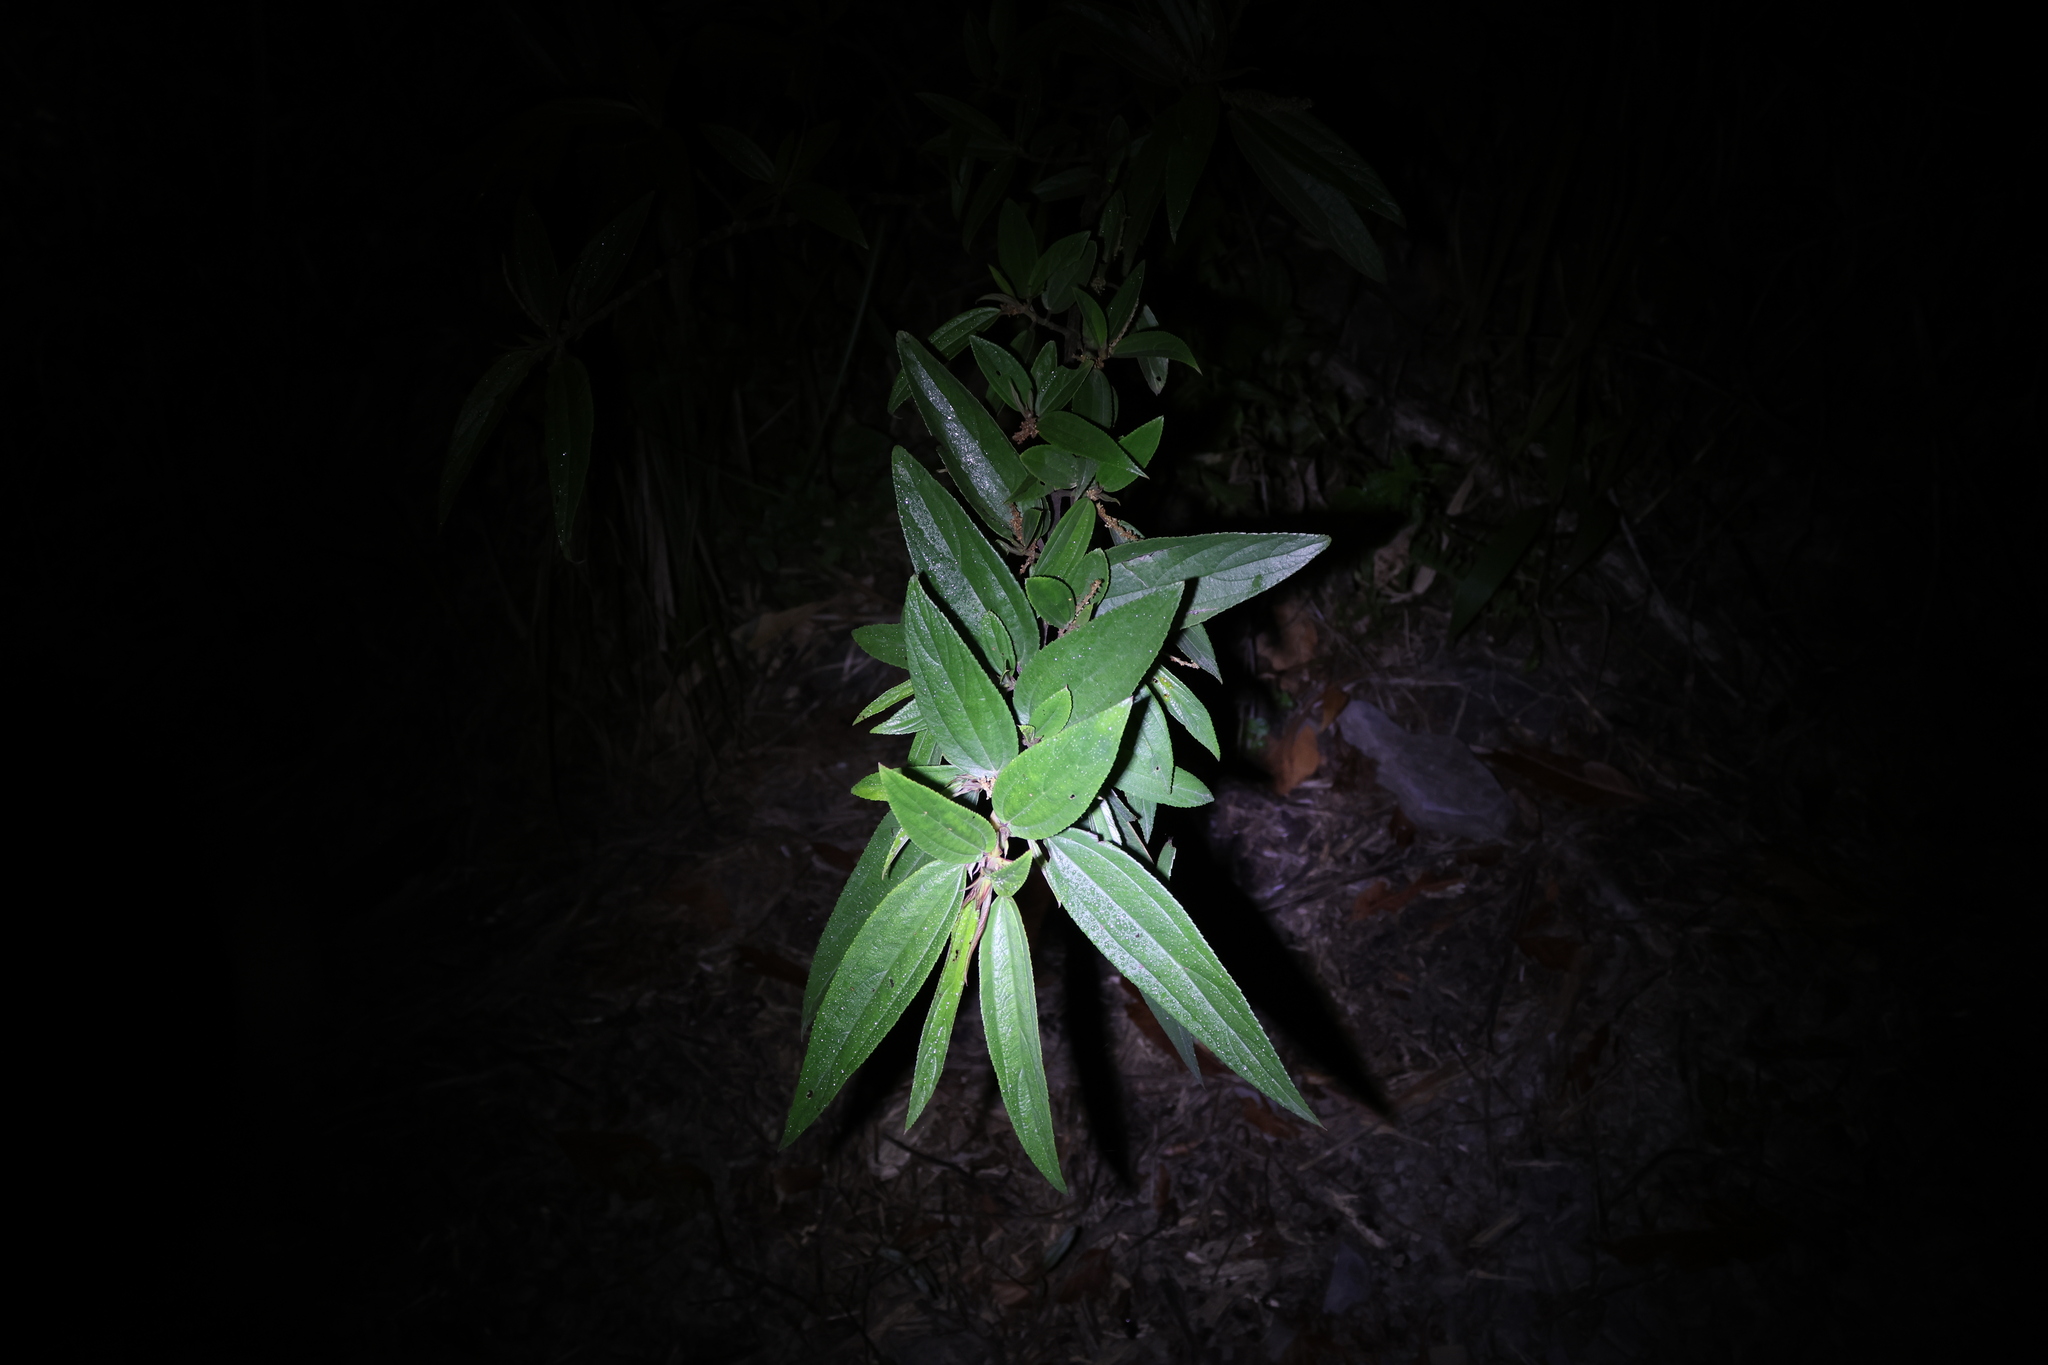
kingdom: Plantae
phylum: Tracheophyta
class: Magnoliopsida
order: Rosales
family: Urticaceae
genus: Boehmeria
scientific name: Boehmeria densiflora
